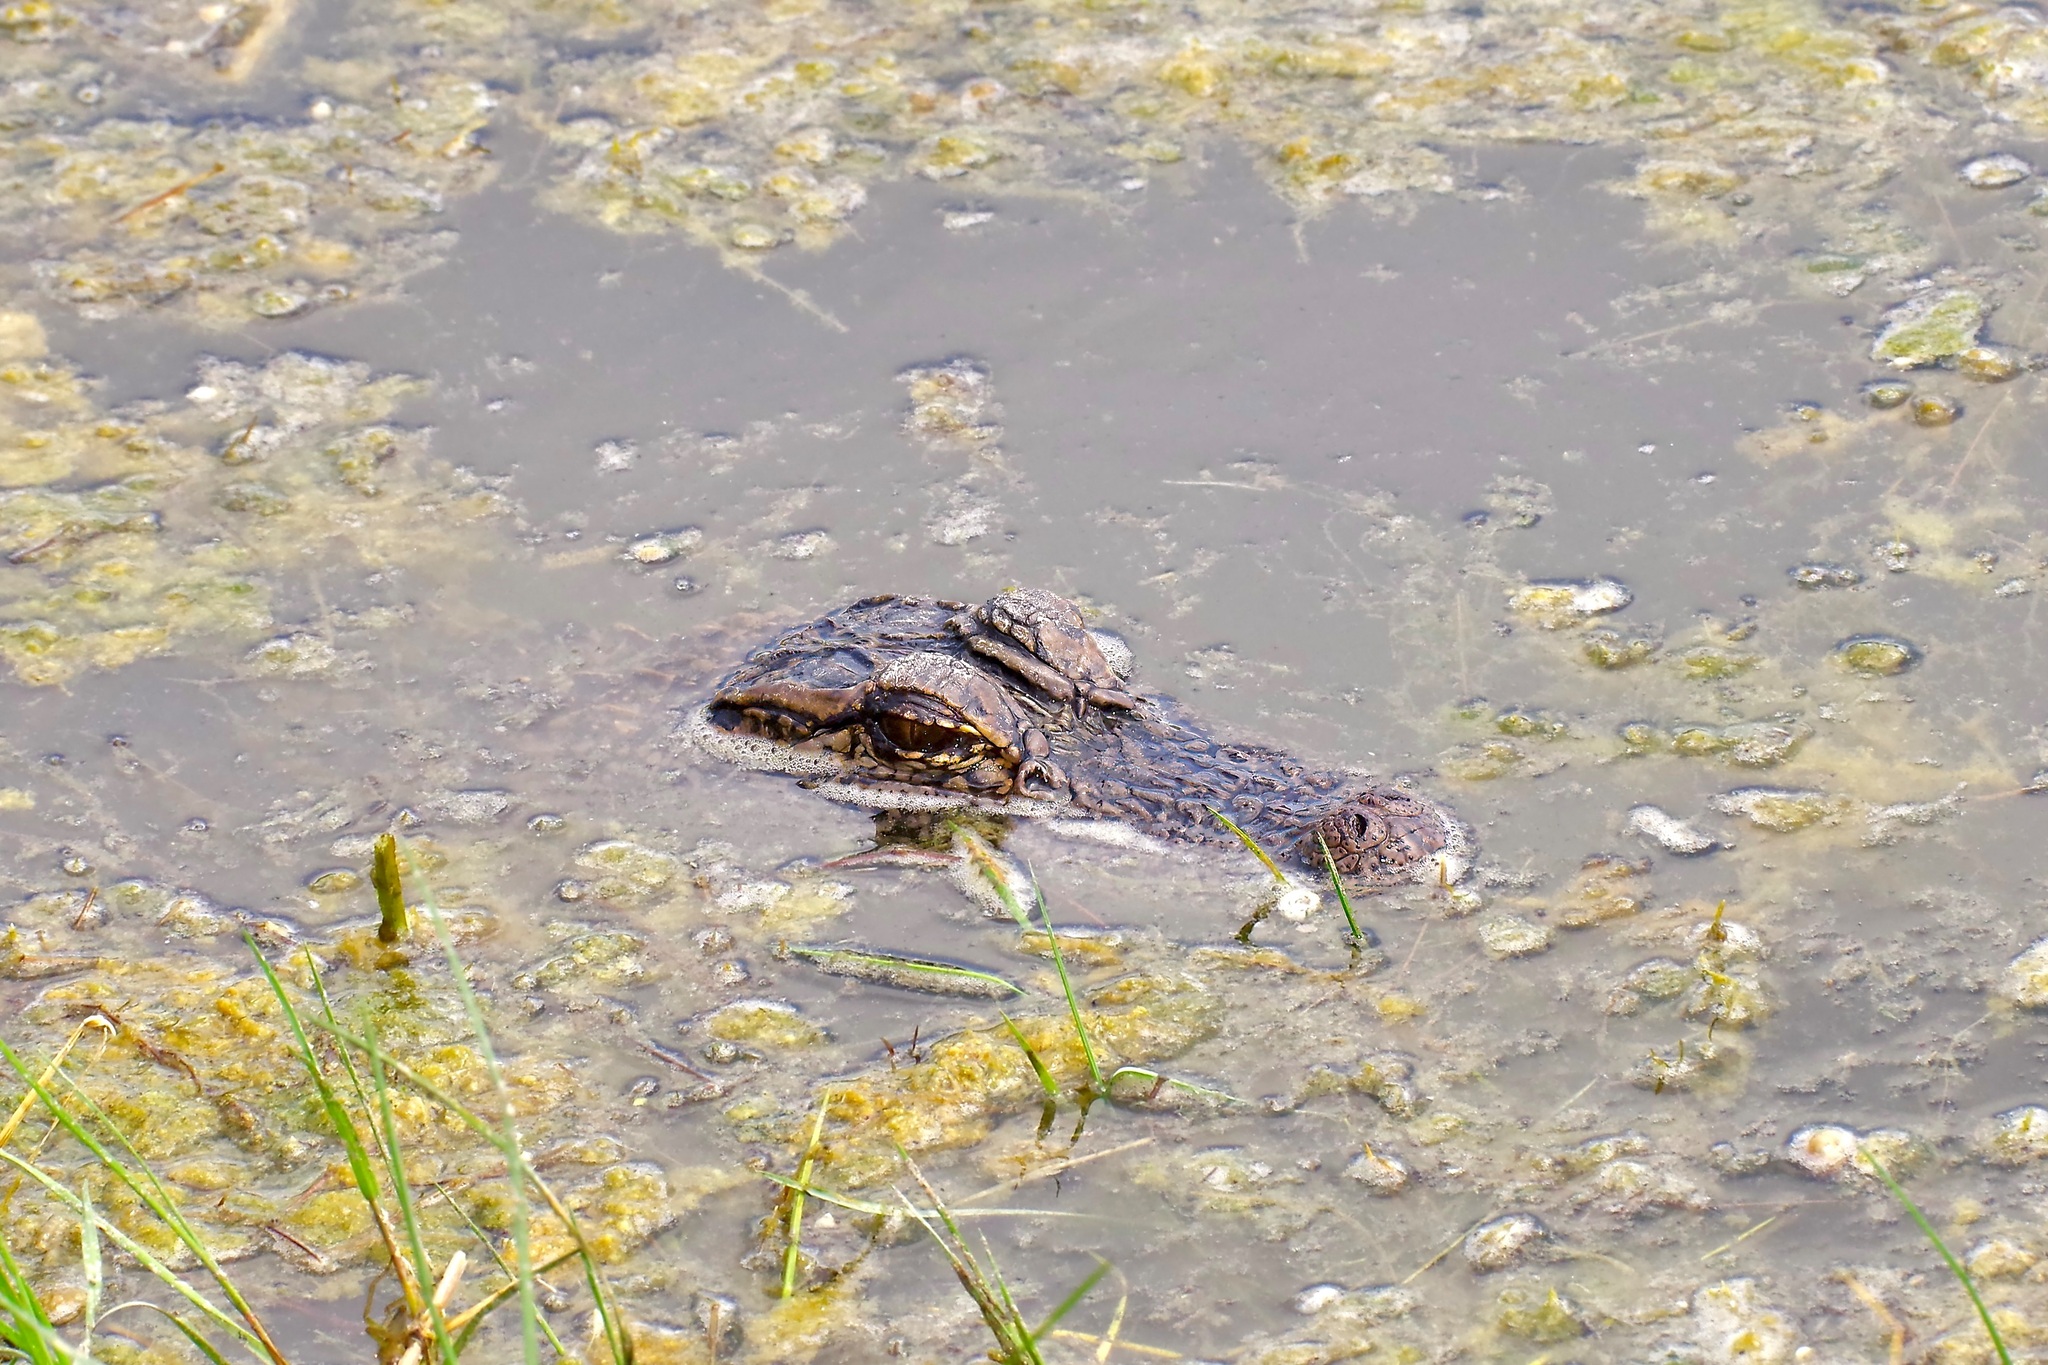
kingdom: Animalia
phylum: Chordata
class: Crocodylia
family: Alligatoridae
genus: Alligator
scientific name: Alligator mississippiensis
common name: American alligator
